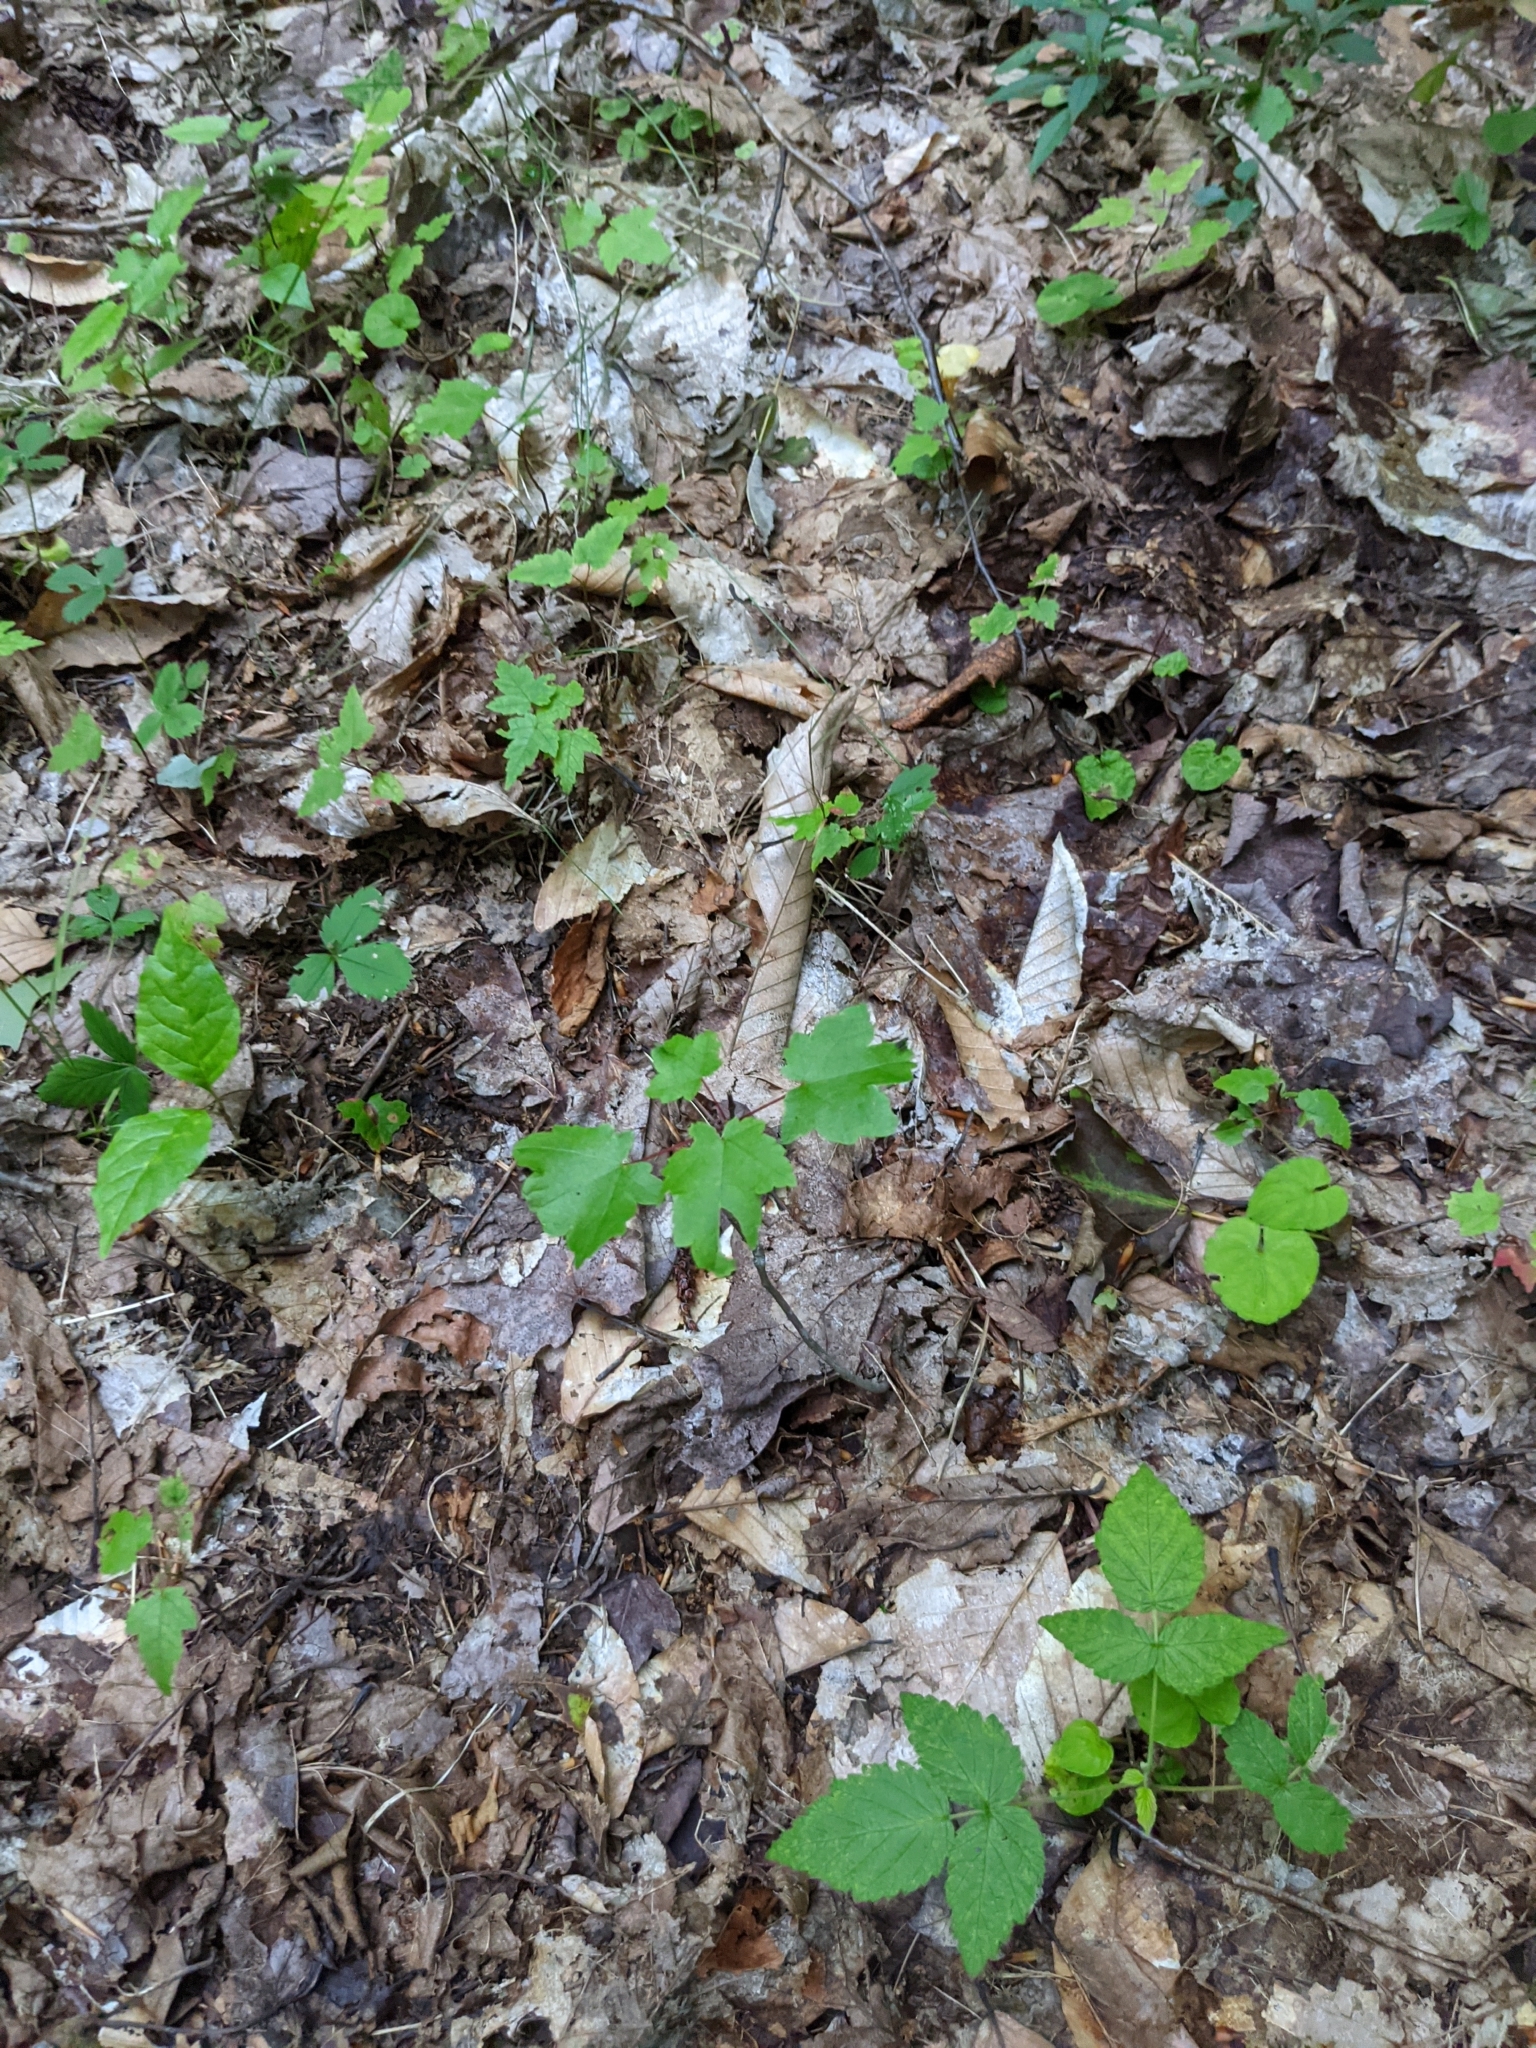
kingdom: Plantae
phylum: Tracheophyta
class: Magnoliopsida
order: Sapindales
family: Sapindaceae
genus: Acer
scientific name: Acer rubrum
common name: Red maple
